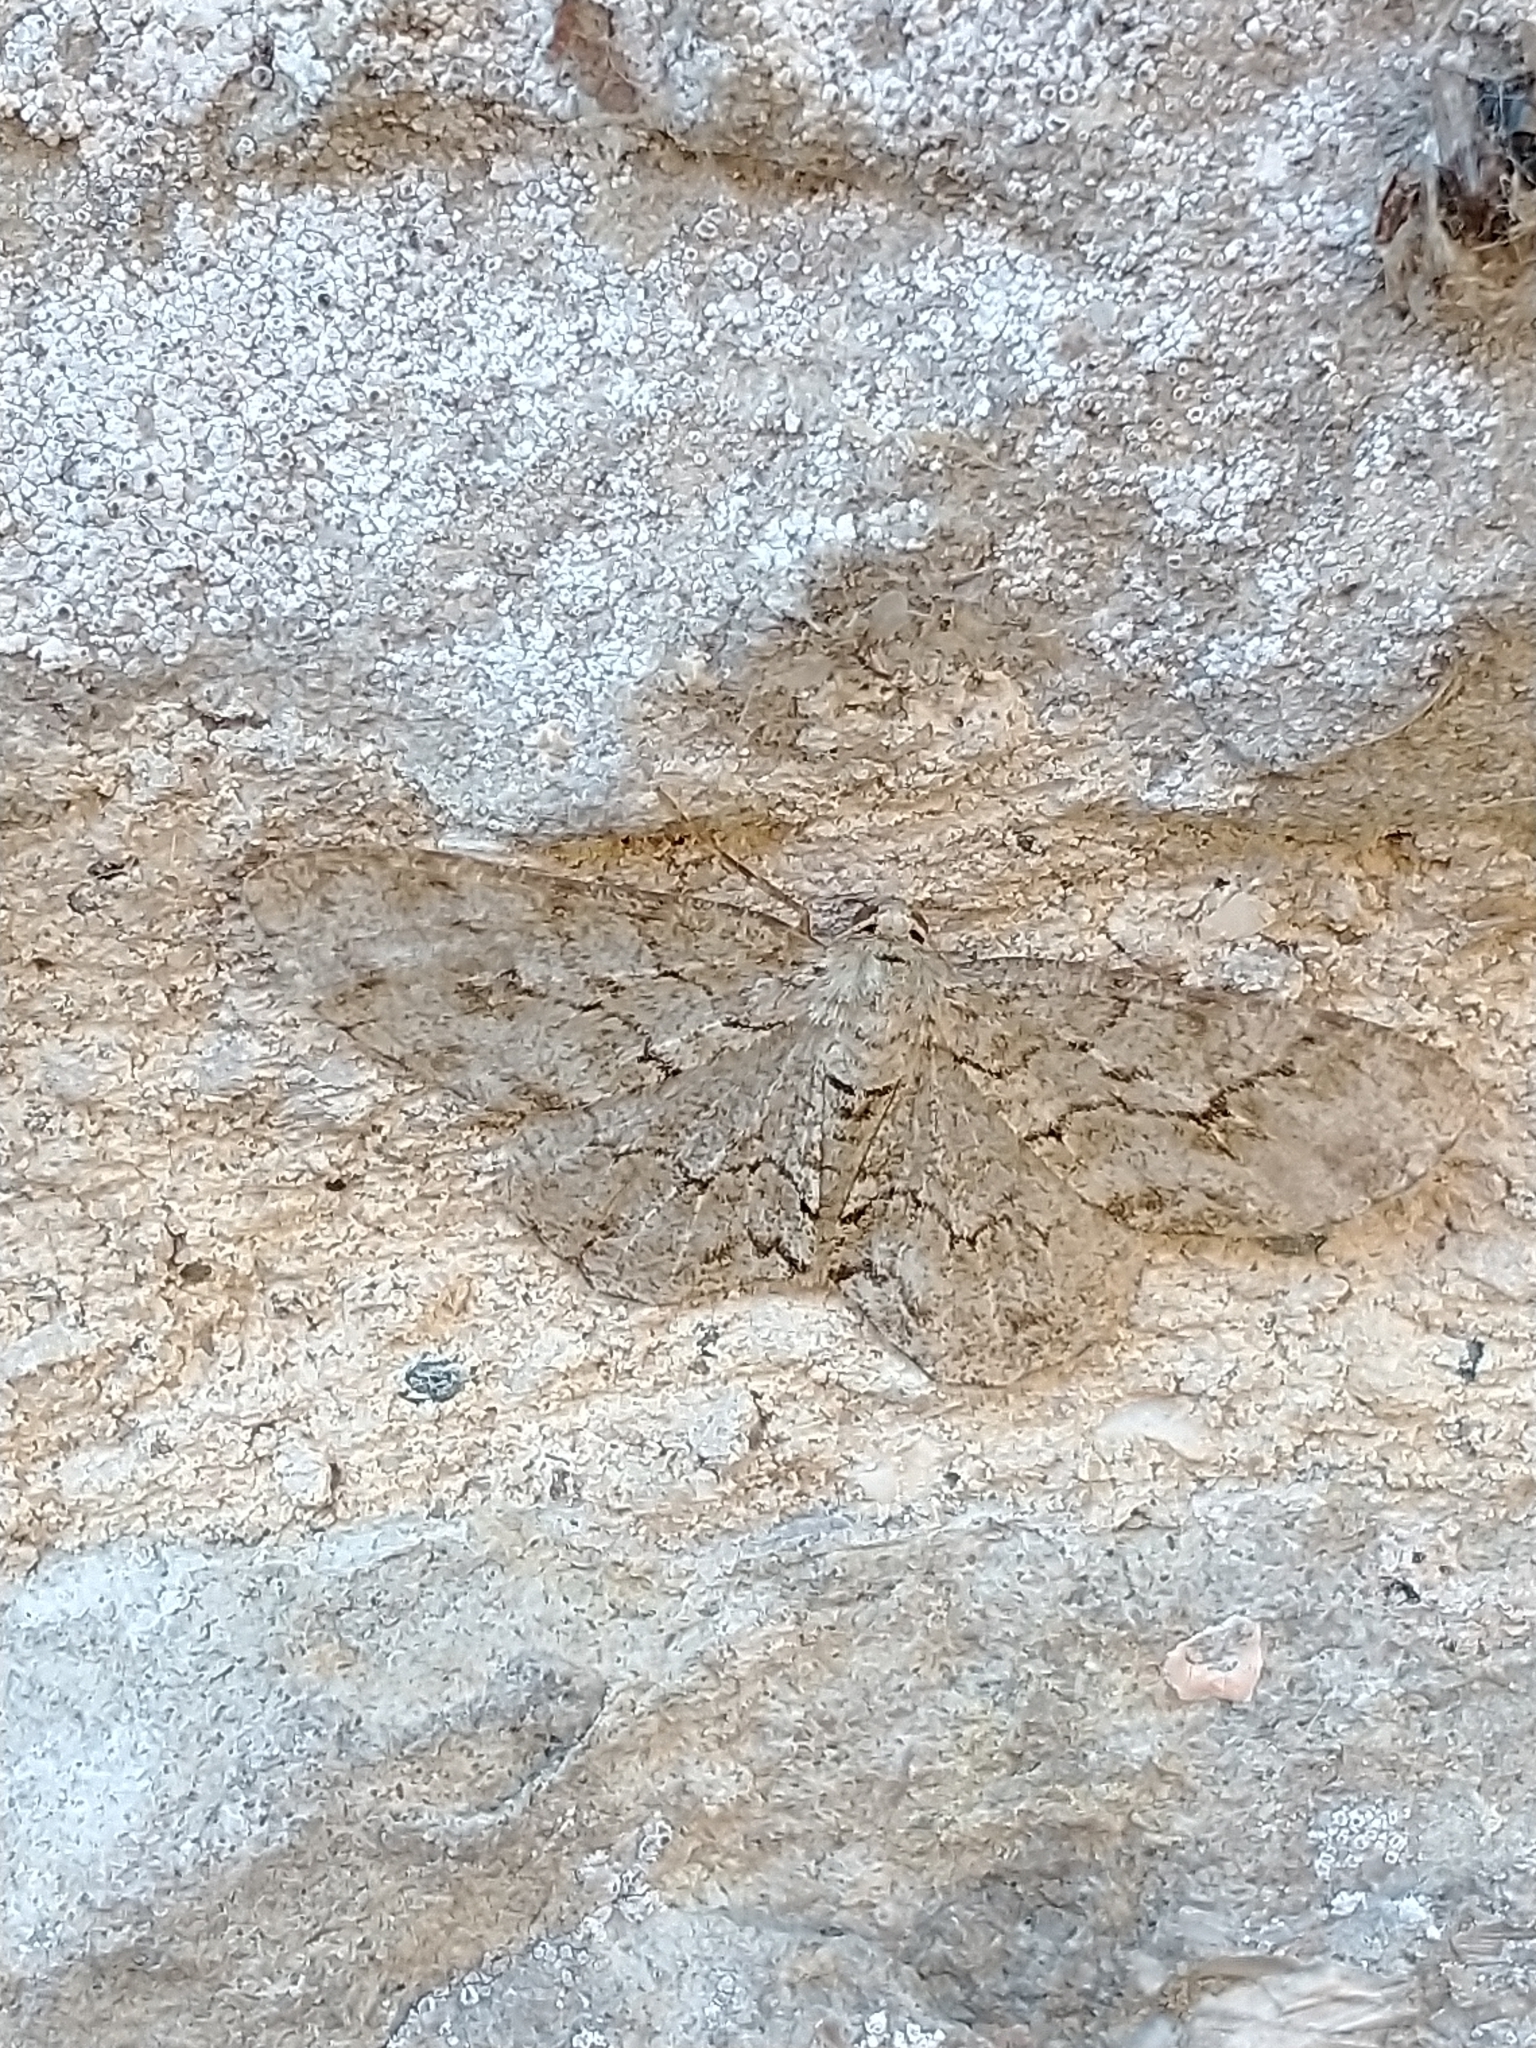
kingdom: Animalia
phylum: Arthropoda
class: Insecta
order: Lepidoptera
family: Geometridae
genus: Ectropis
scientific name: Ectropis crepuscularia
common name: Engrailed
